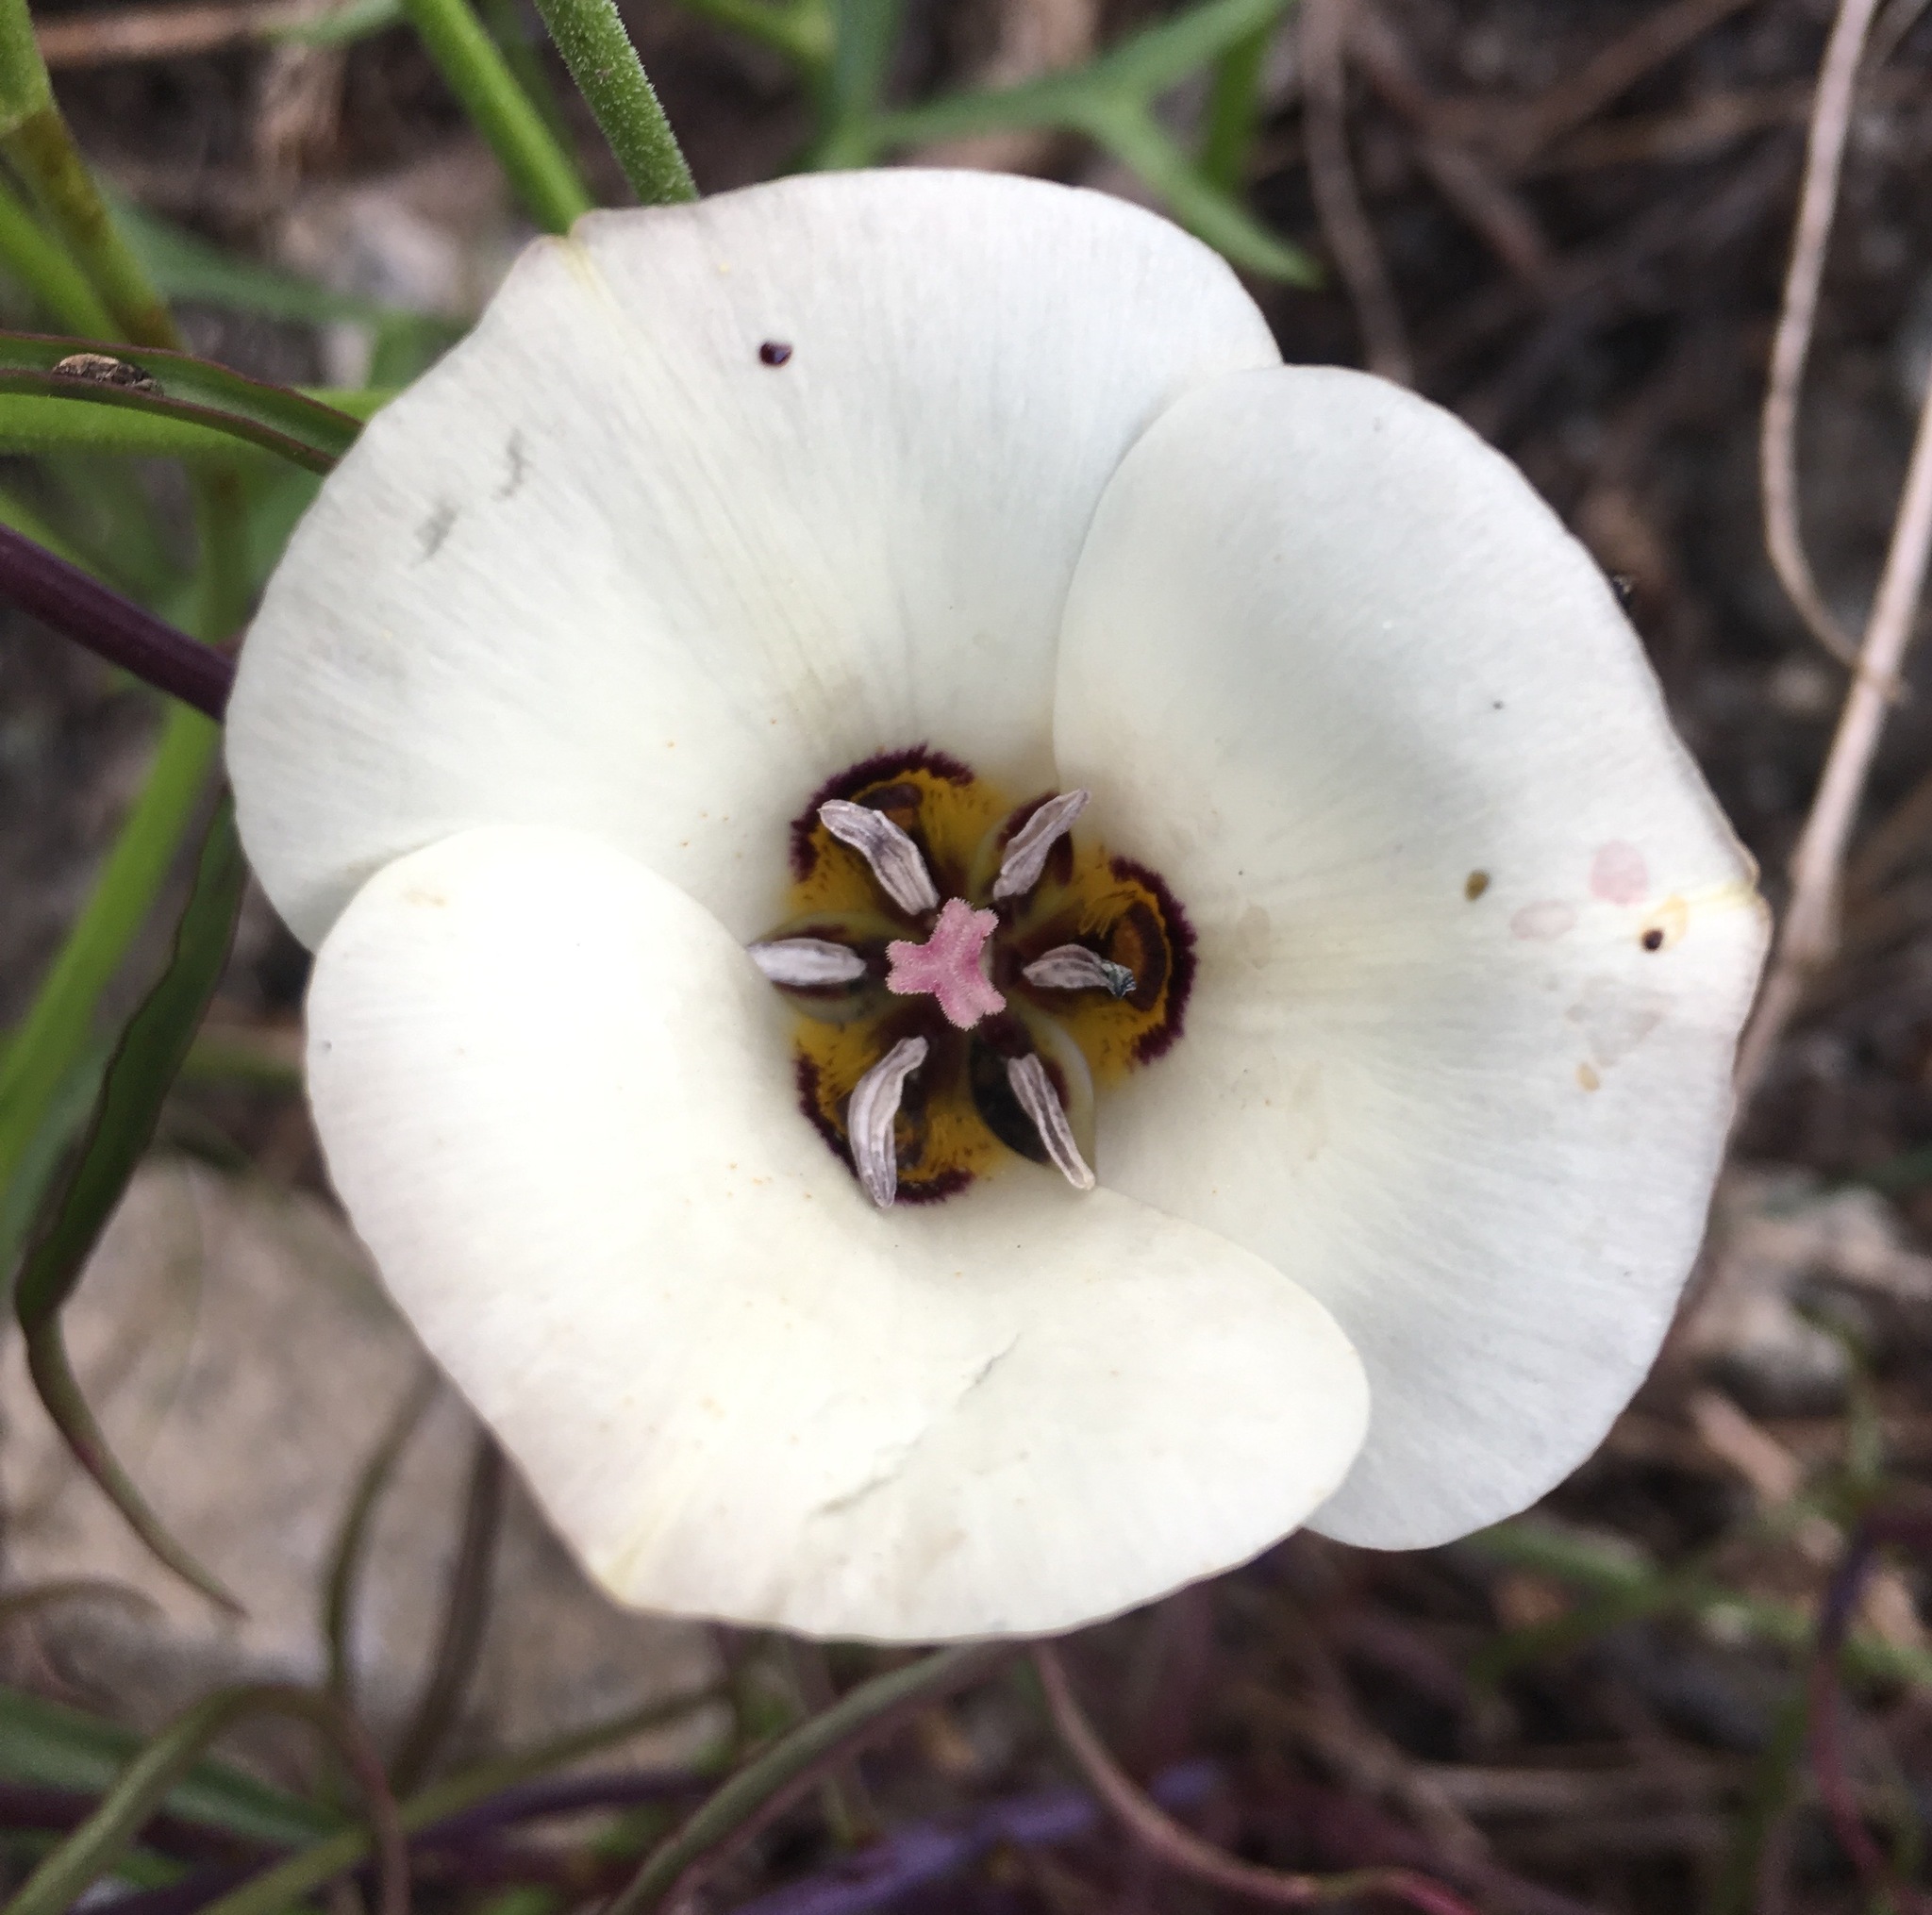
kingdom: Plantae
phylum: Tracheophyta
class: Liliopsida
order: Liliales
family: Liliaceae
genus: Calochortus
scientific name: Calochortus bruneaunis
